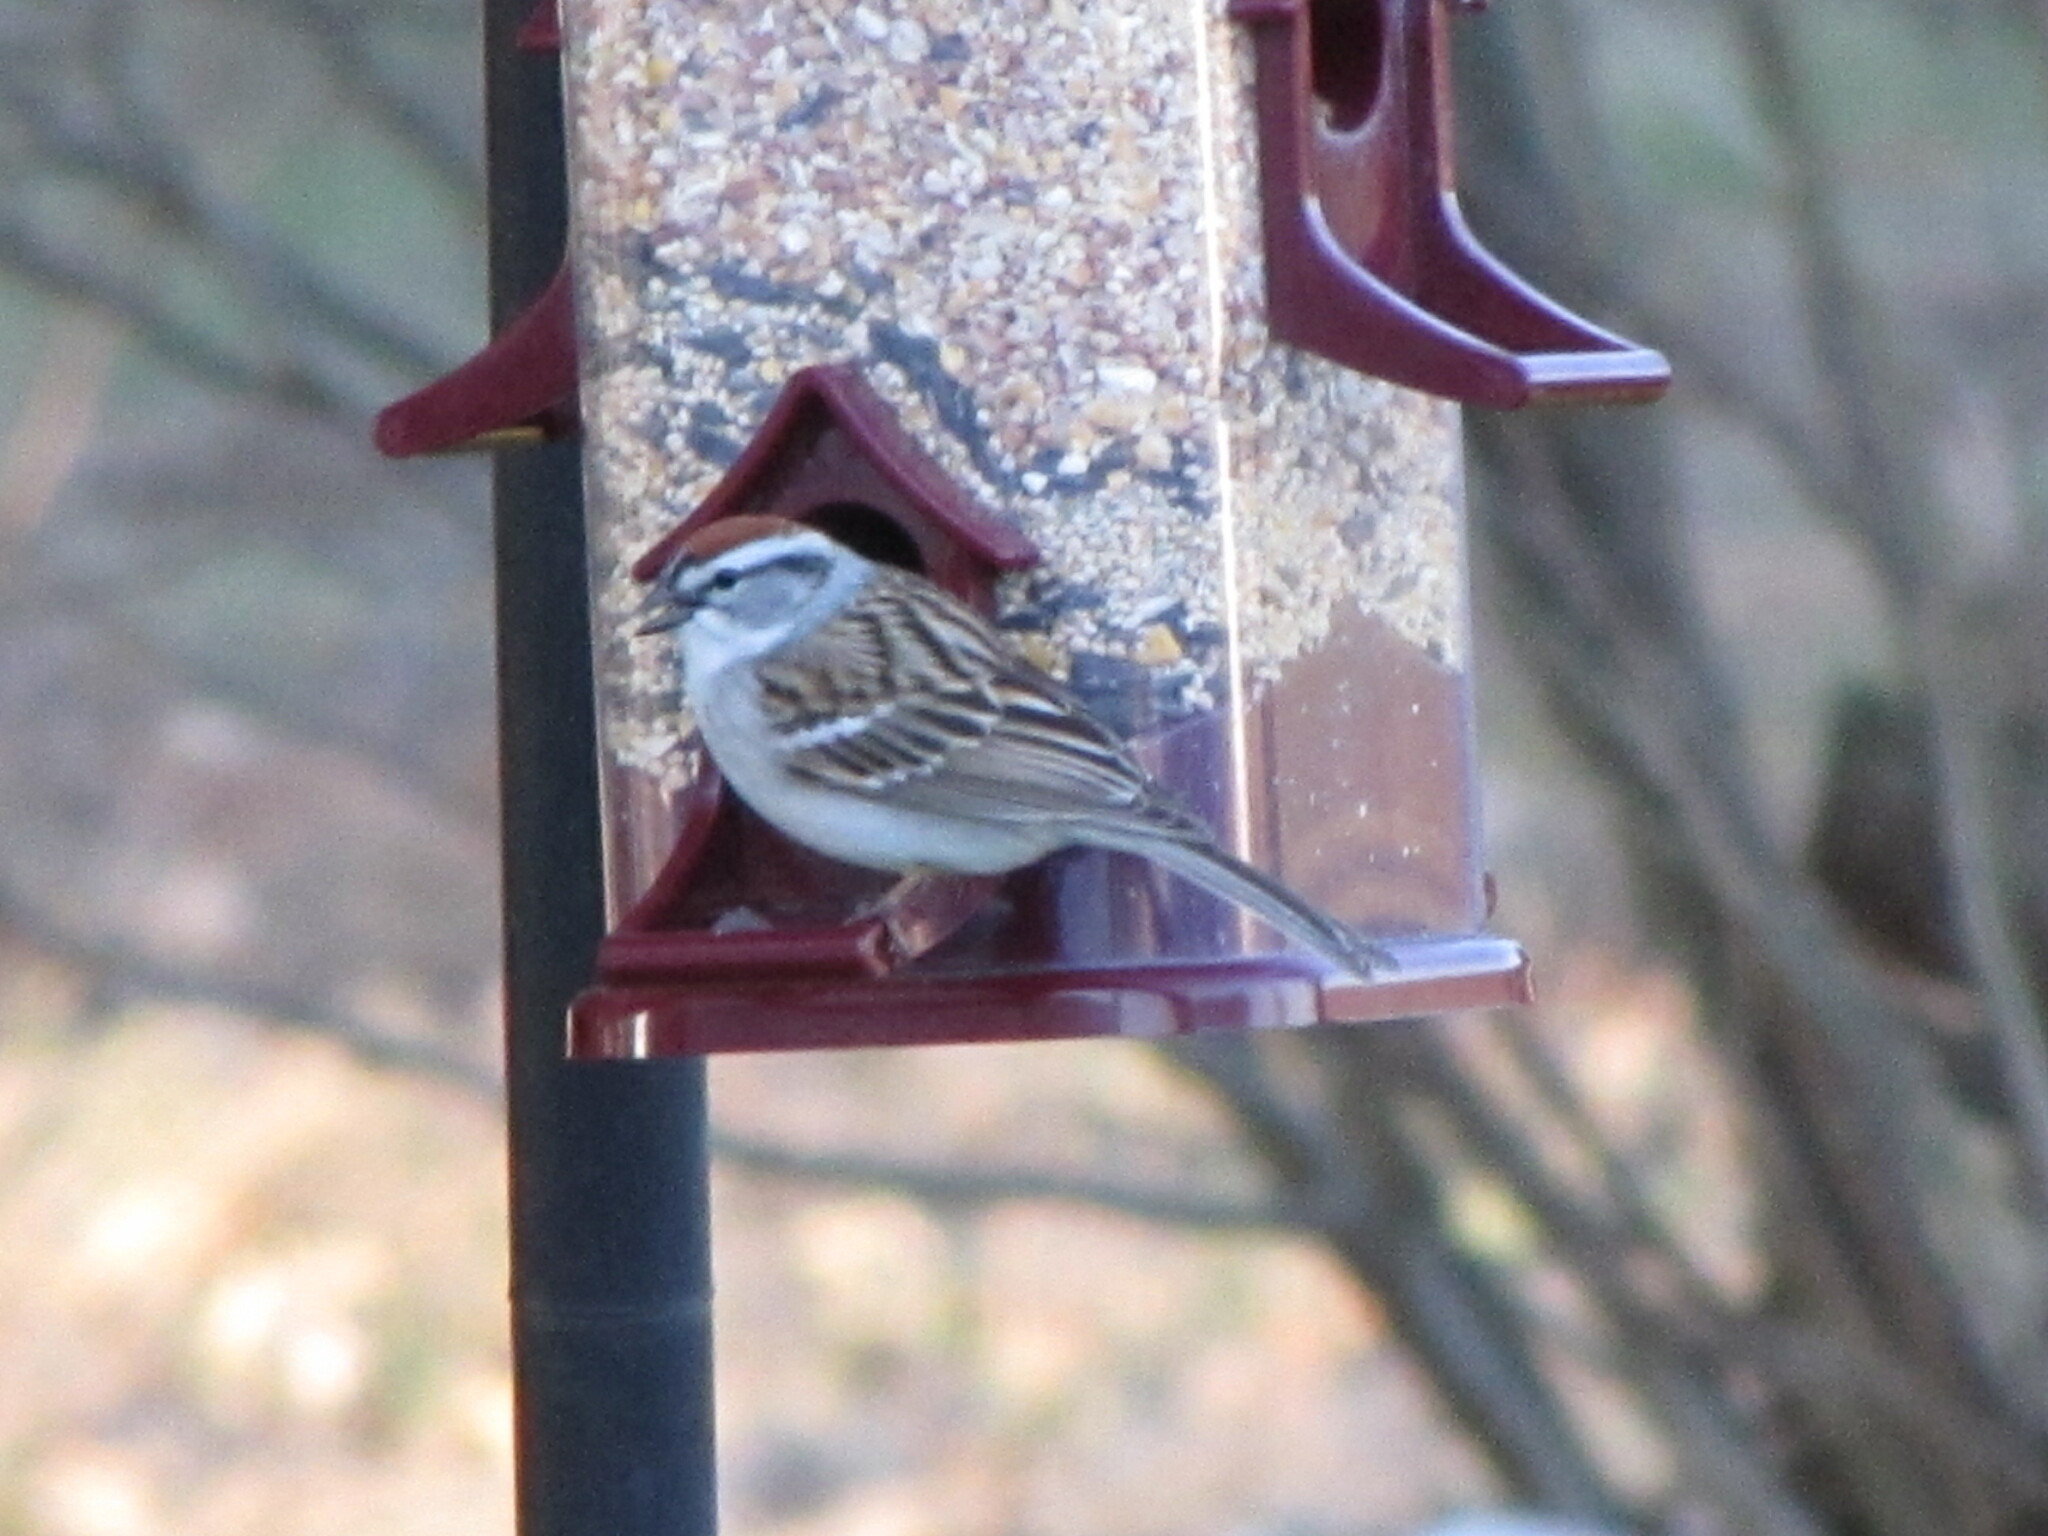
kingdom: Animalia
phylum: Chordata
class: Aves
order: Passeriformes
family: Passerellidae
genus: Spizella
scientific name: Spizella passerina
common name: Chipping sparrow
